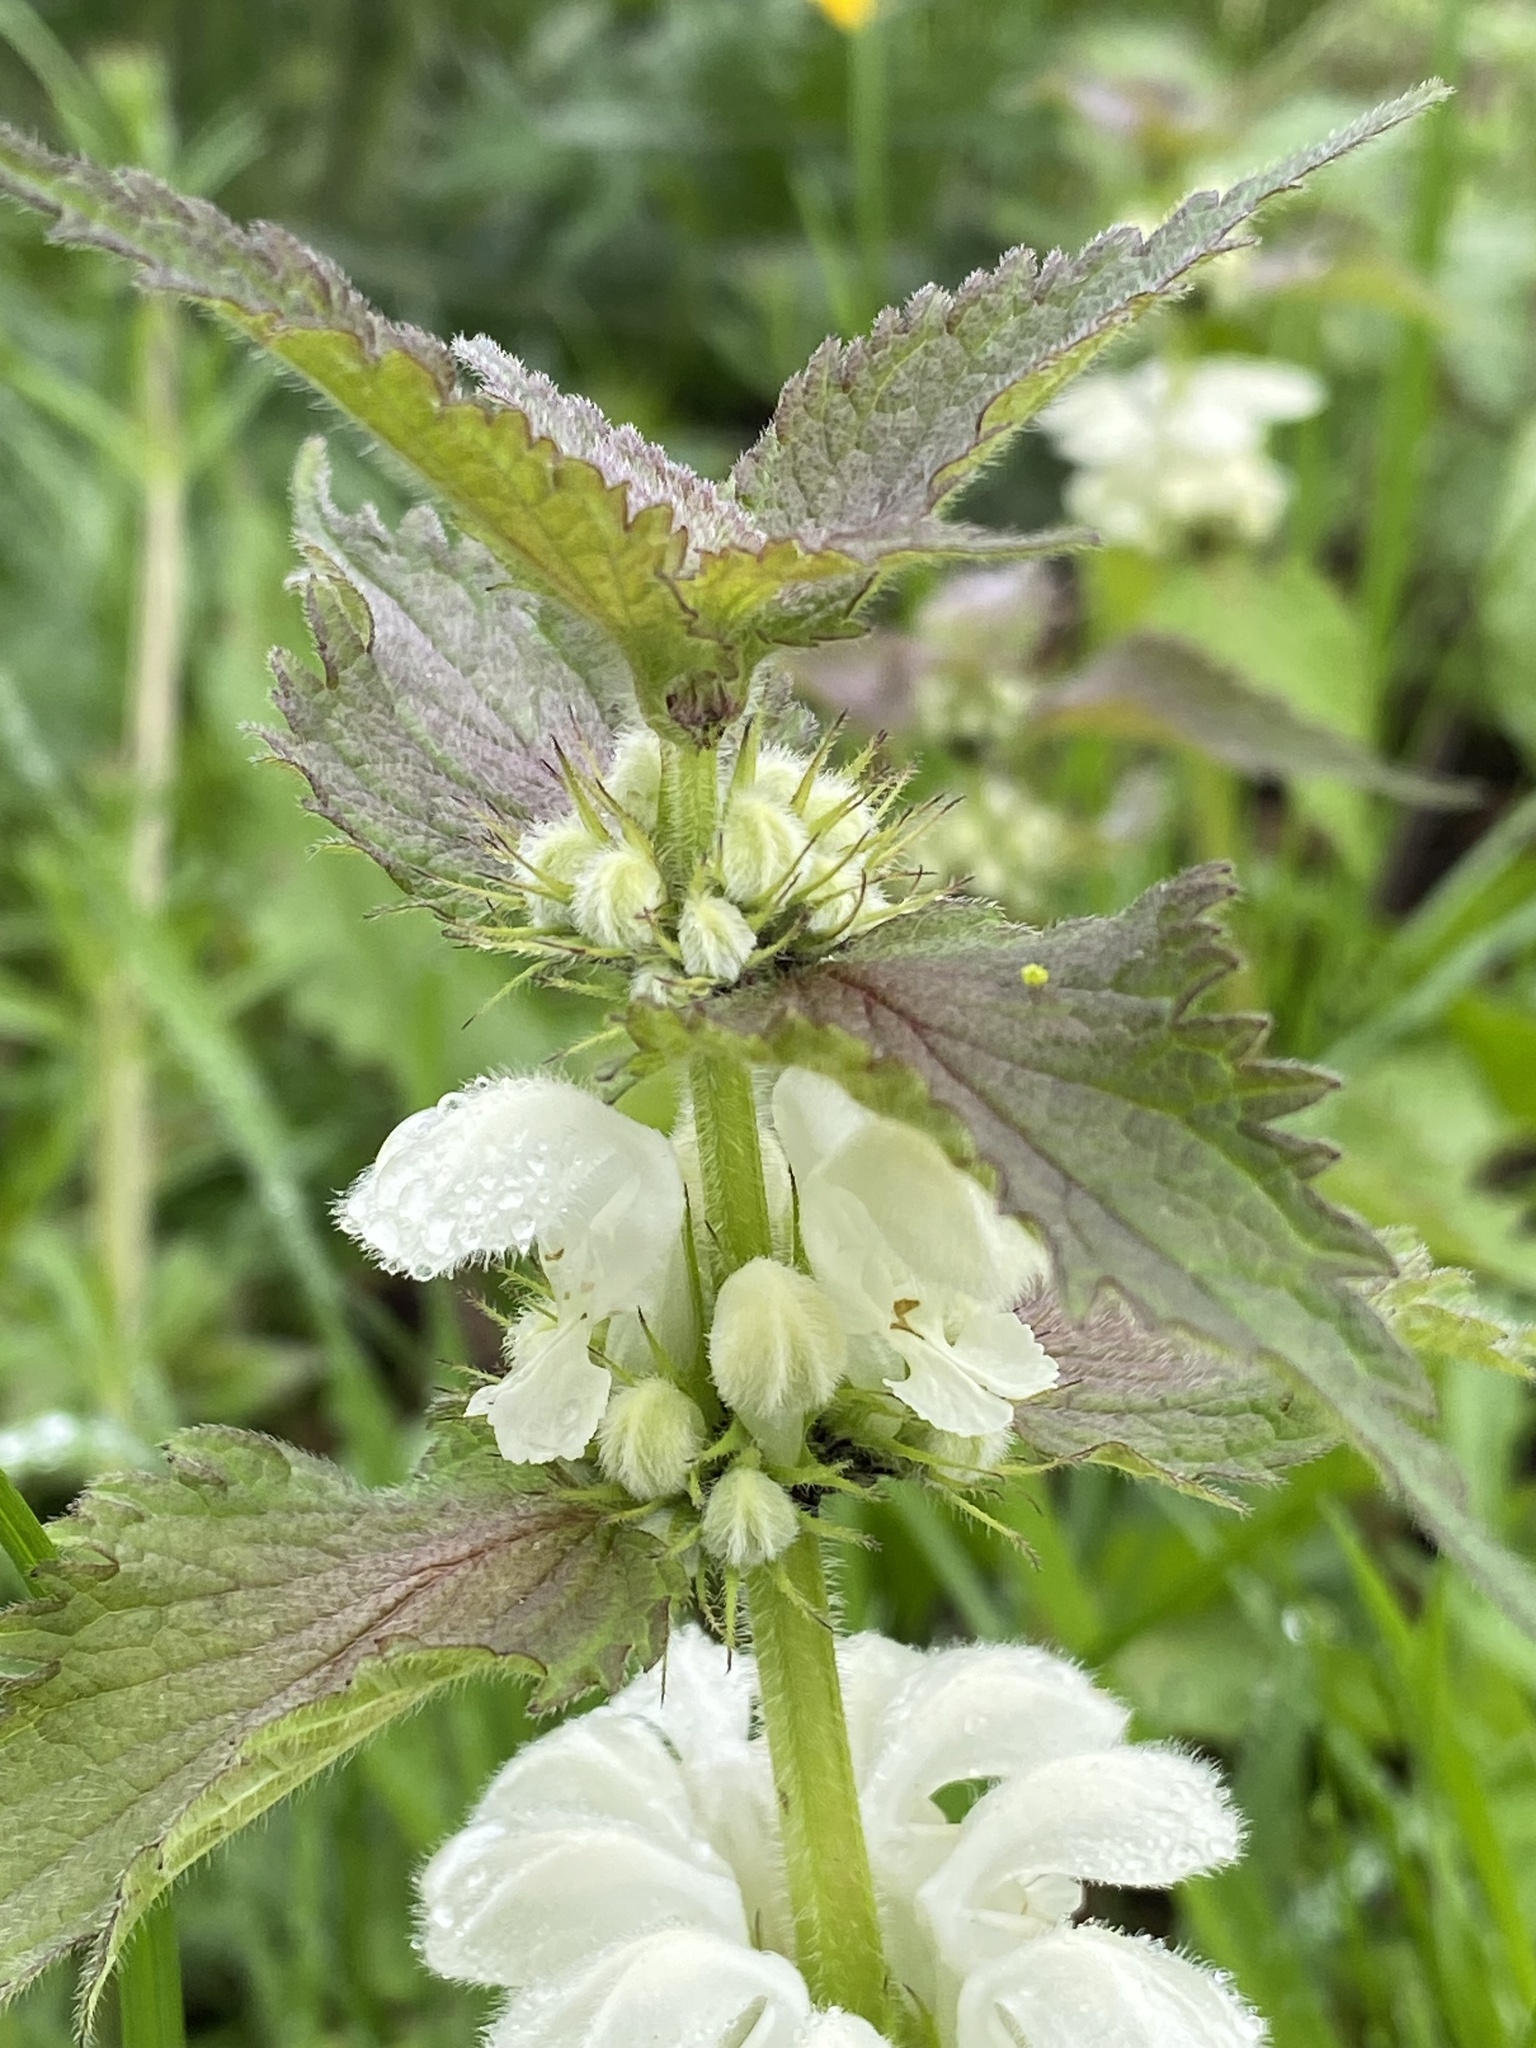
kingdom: Plantae
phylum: Tracheophyta
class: Magnoliopsida
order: Lamiales
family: Lamiaceae
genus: Lamium
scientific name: Lamium album
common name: White dead-nettle
